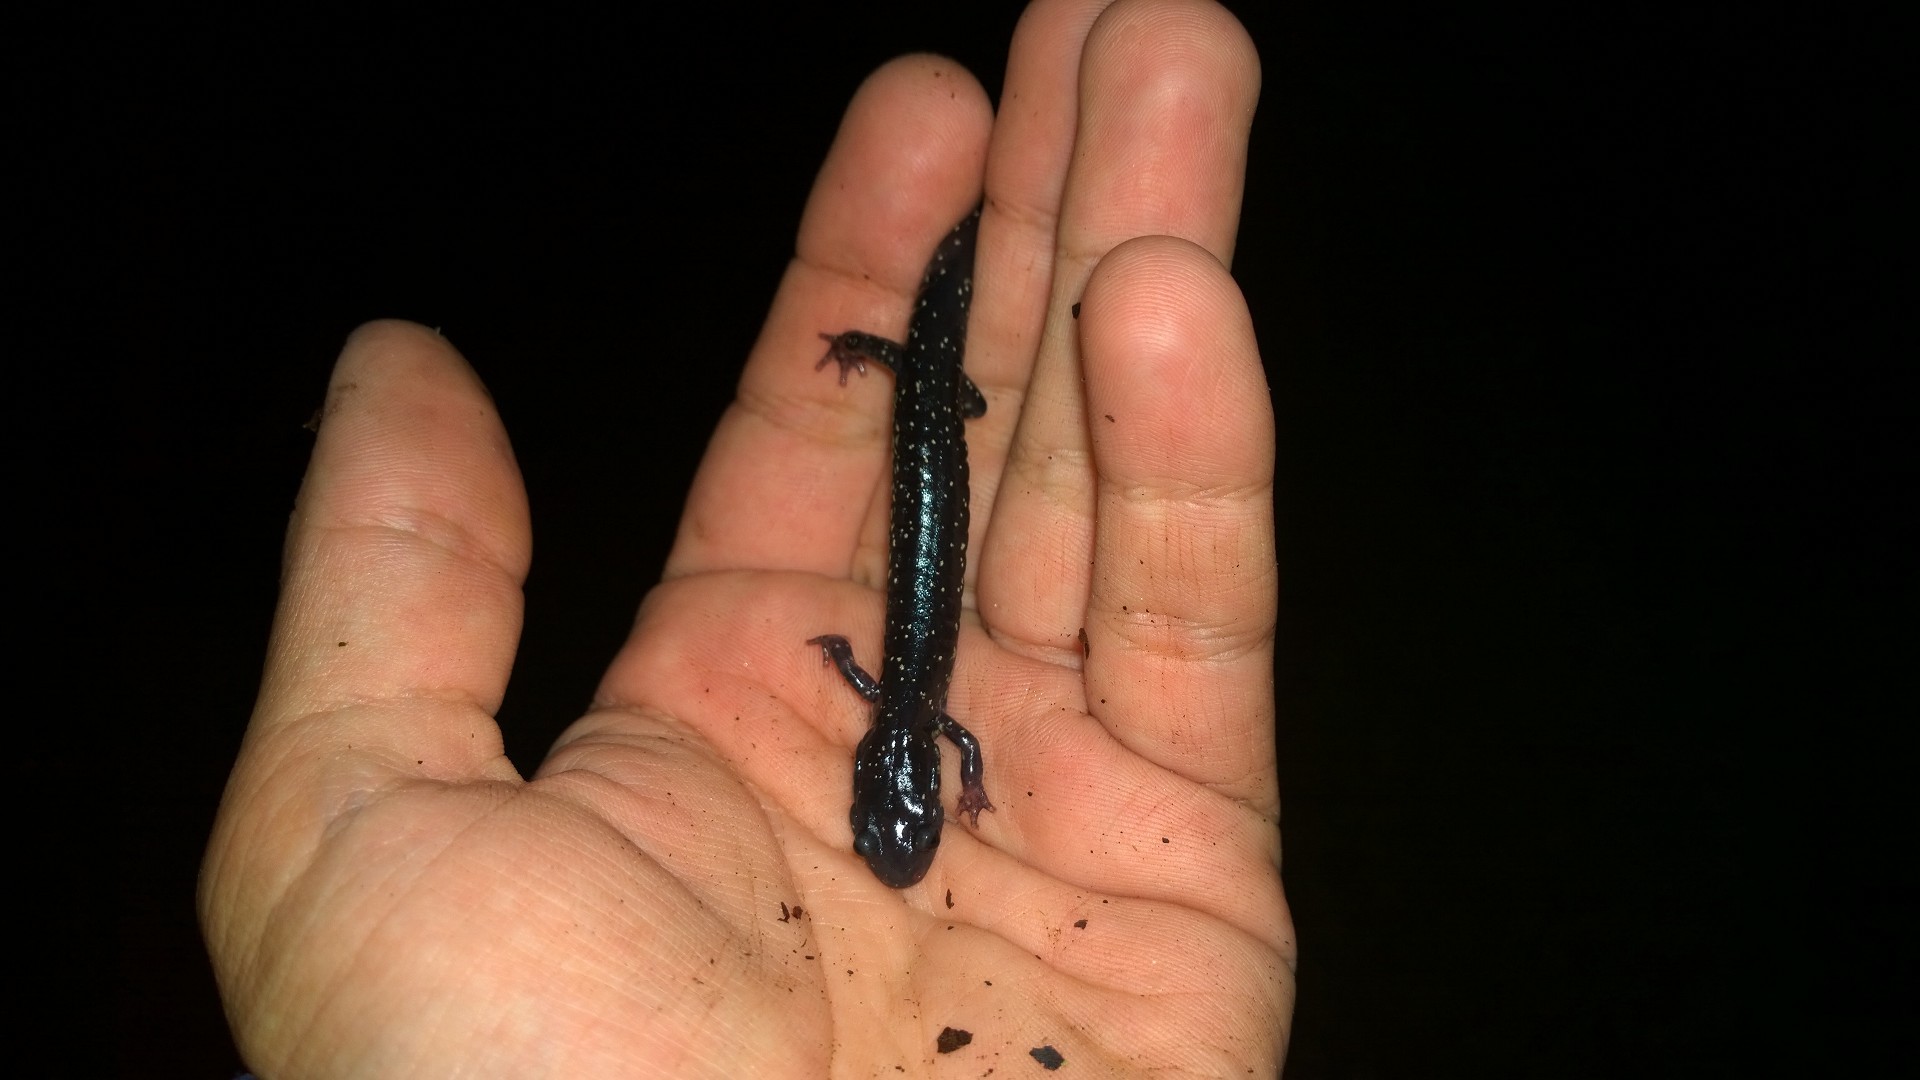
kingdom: Animalia
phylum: Chordata
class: Amphibia
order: Caudata
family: Plethodontidae
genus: Plethodon
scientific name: Plethodon albagula
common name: Western slimy salamander
